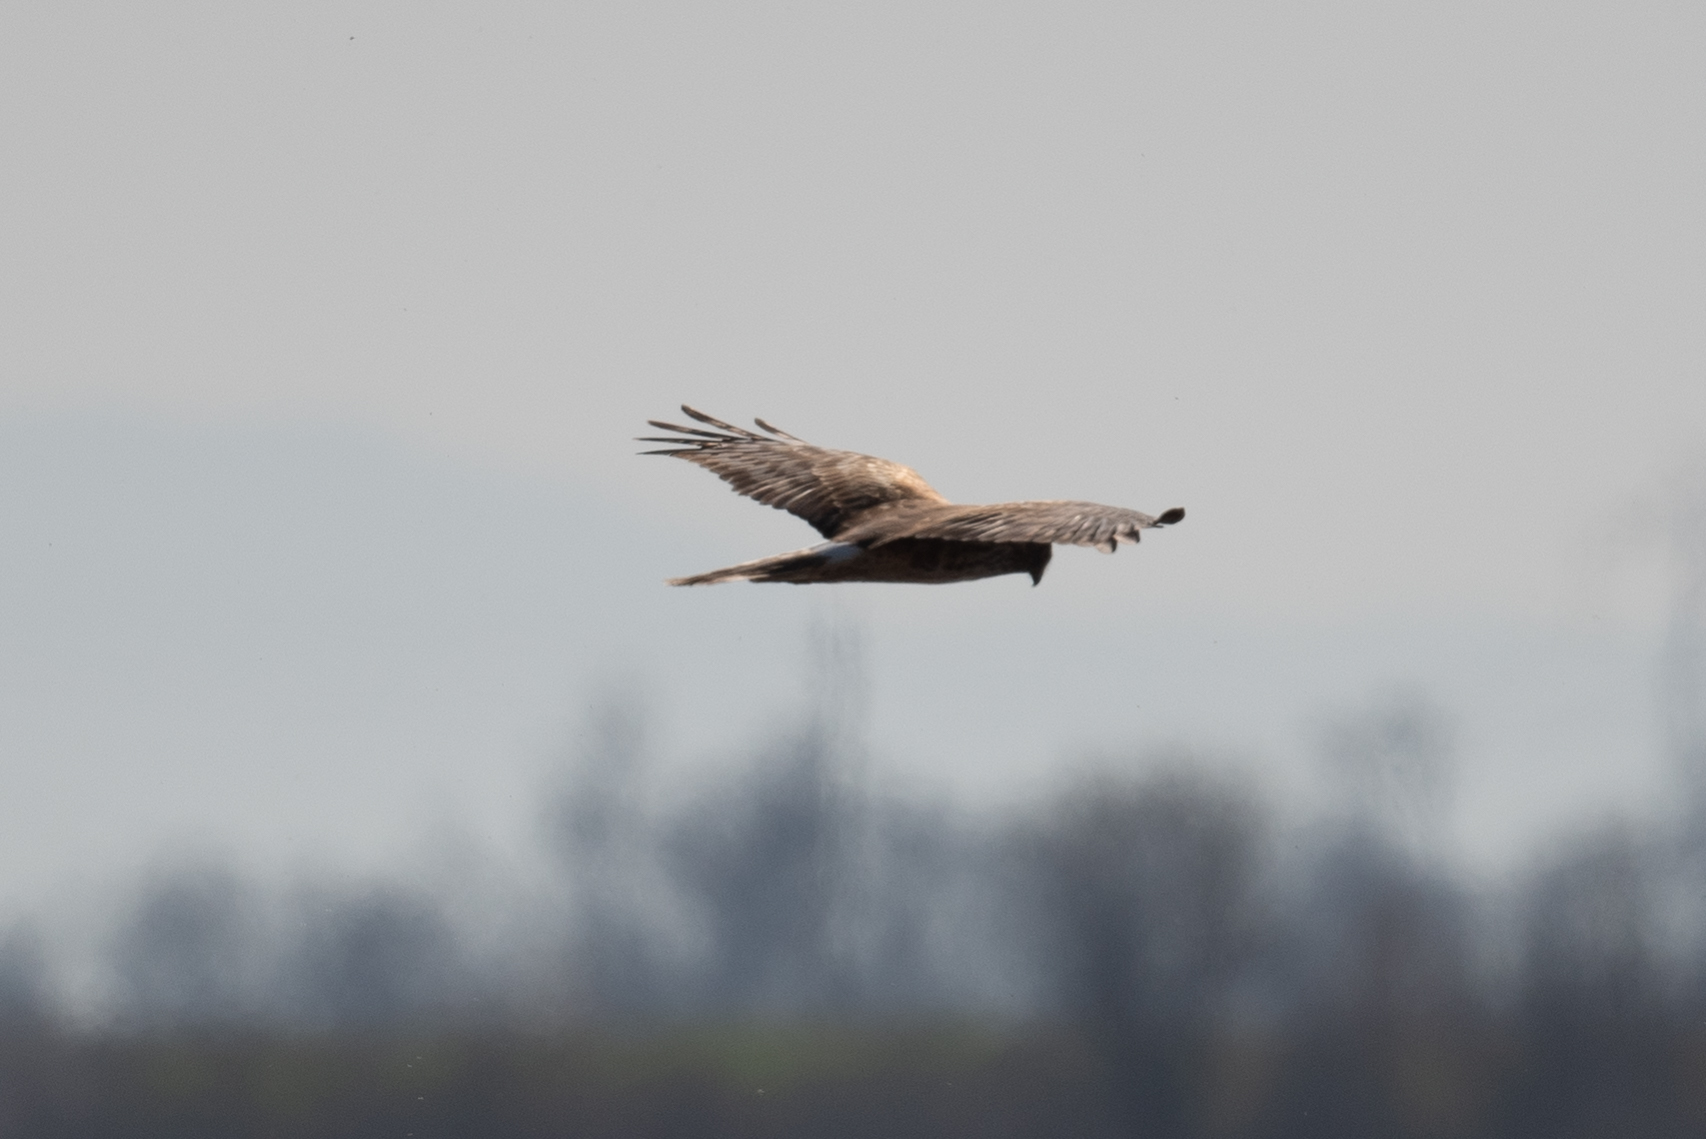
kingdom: Animalia
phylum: Chordata
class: Aves
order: Accipitriformes
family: Accipitridae
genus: Circus
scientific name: Circus cyaneus
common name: Hen harrier
